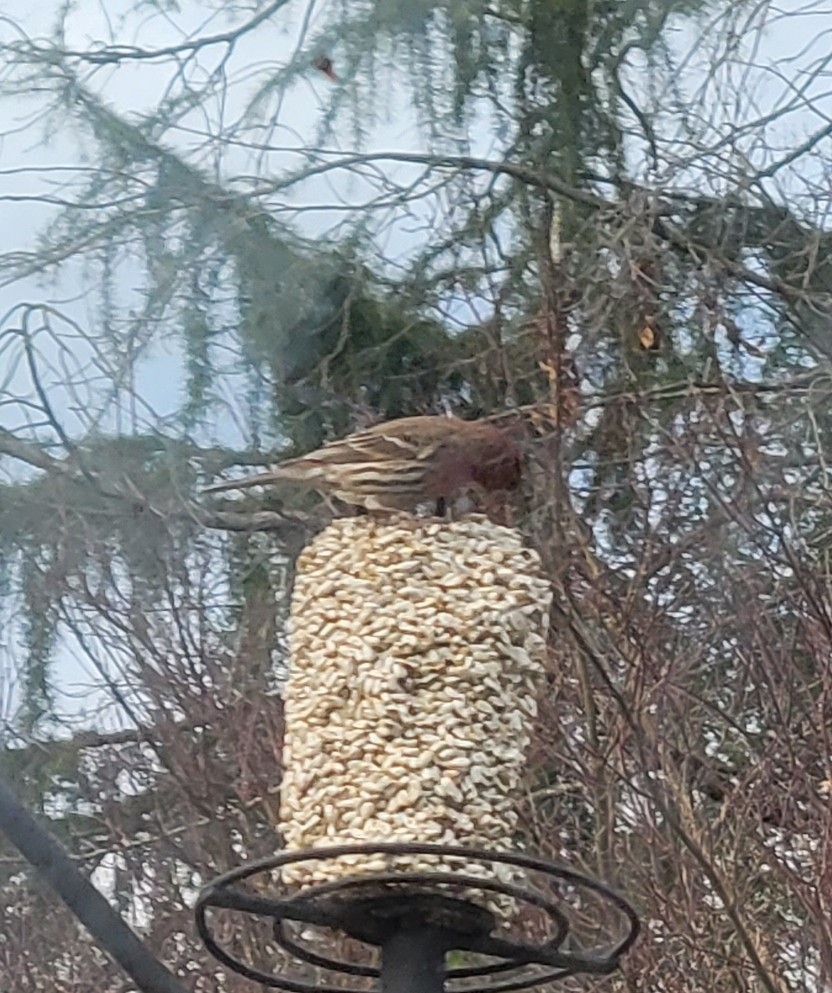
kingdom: Animalia
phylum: Chordata
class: Aves
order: Passeriformes
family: Fringillidae
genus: Haemorhous
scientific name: Haemorhous mexicanus
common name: House finch
